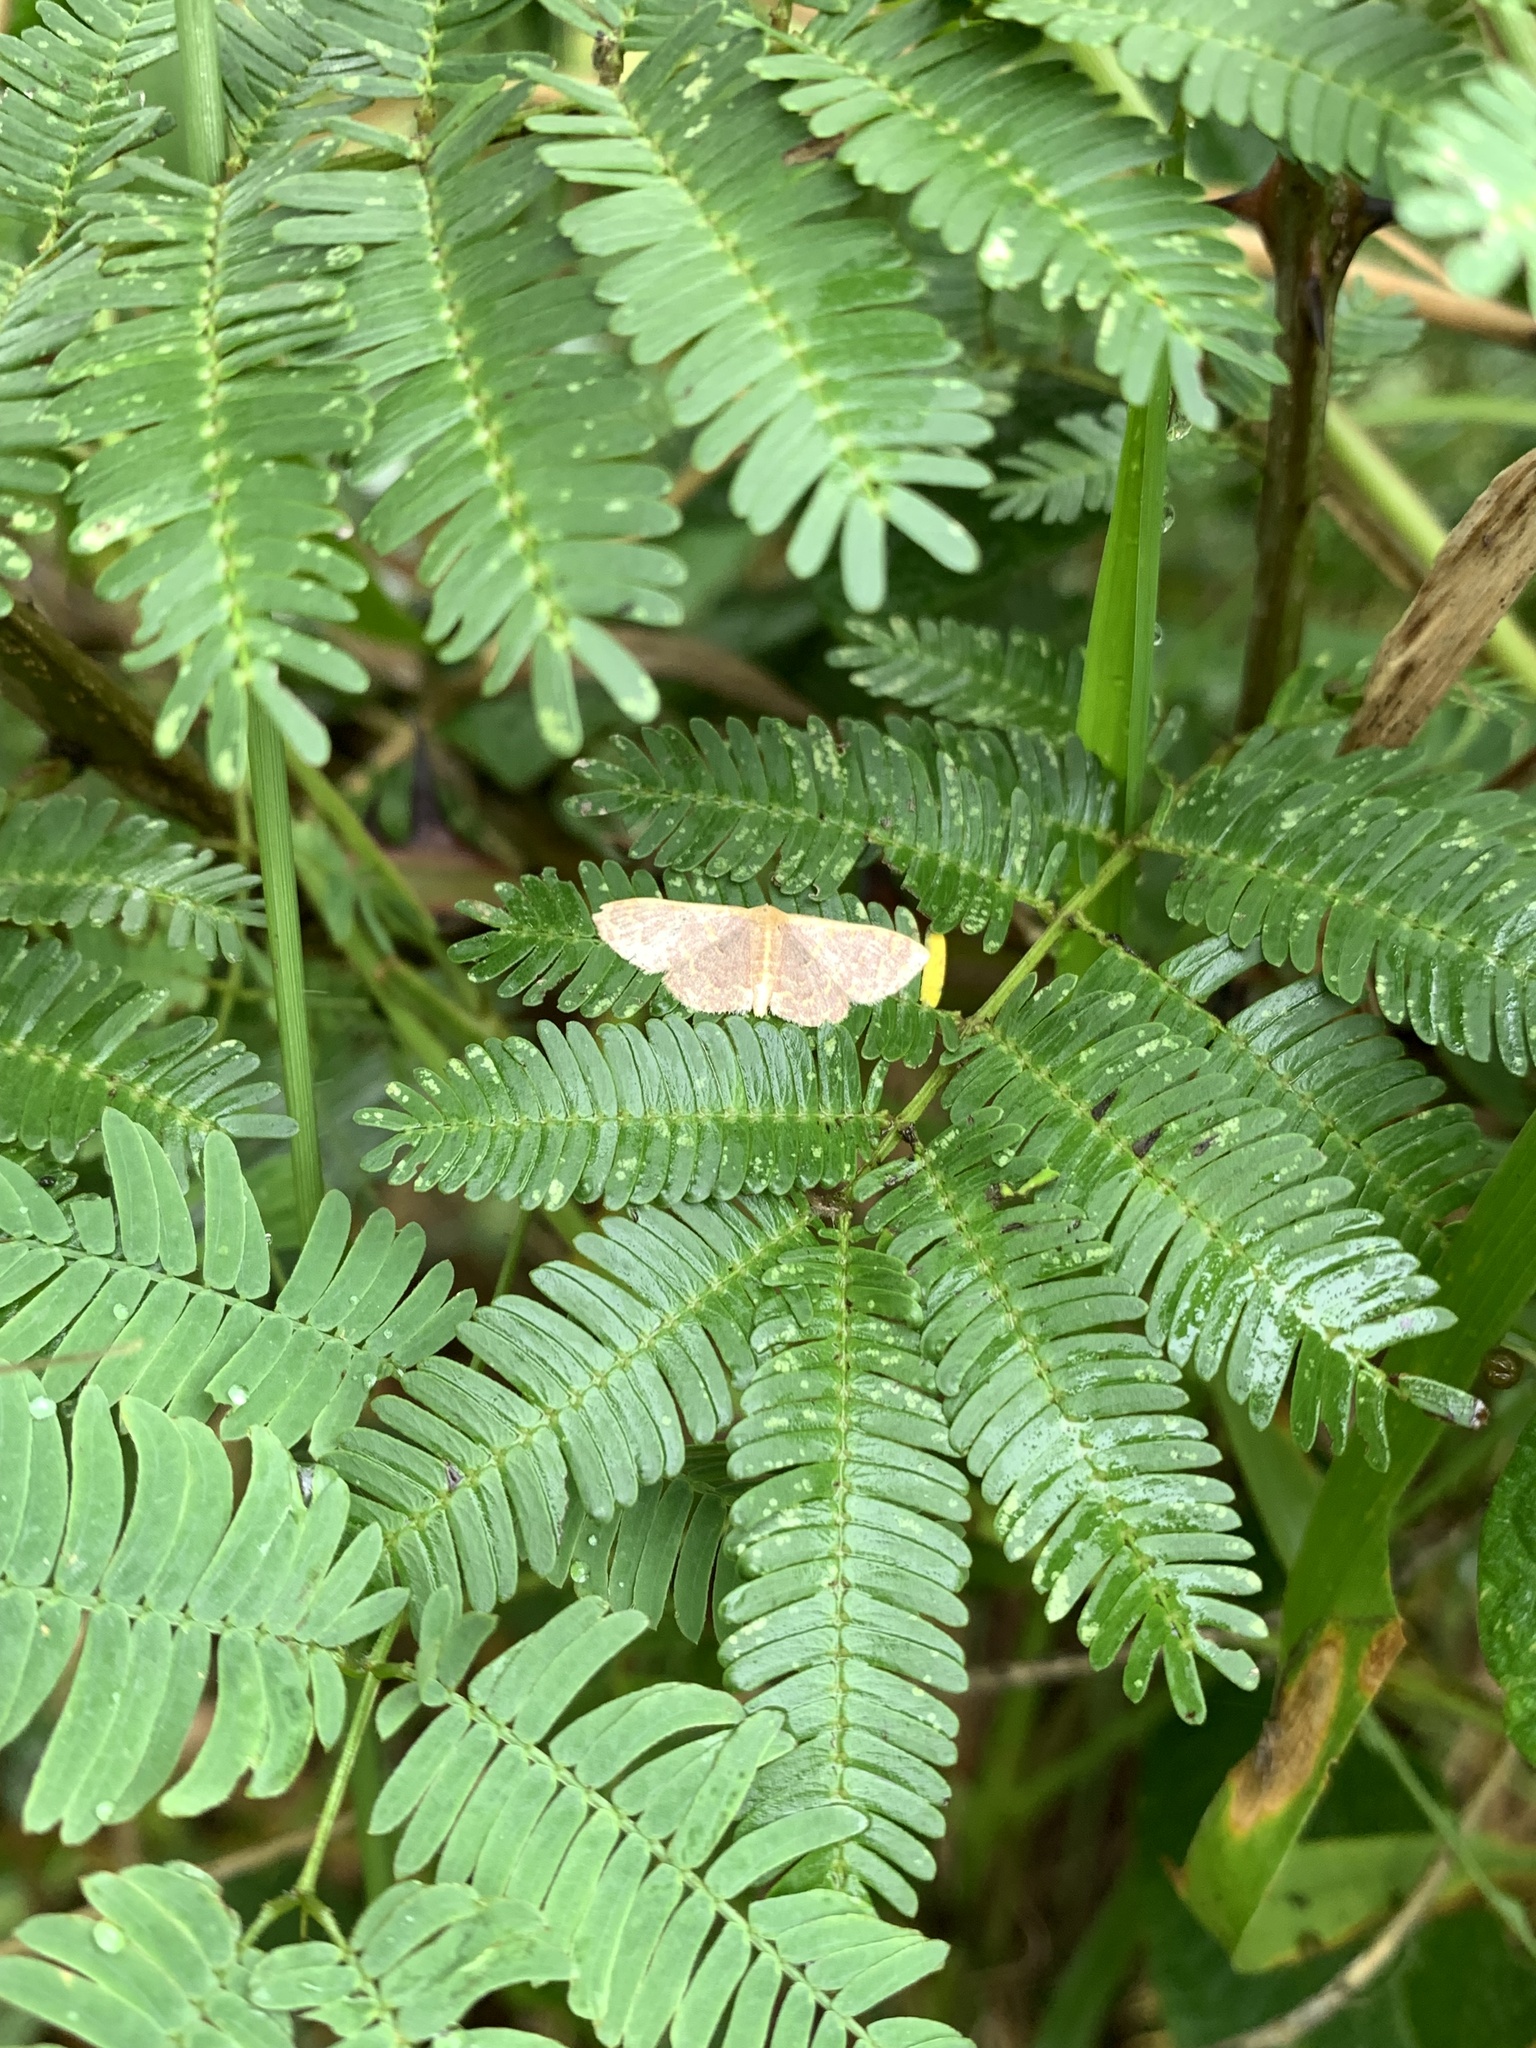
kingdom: Animalia
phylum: Arthropoda
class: Insecta
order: Lepidoptera
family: Geometridae
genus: Pleuroprucha
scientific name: Pleuroprucha insulsaria
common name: Common tan wave
